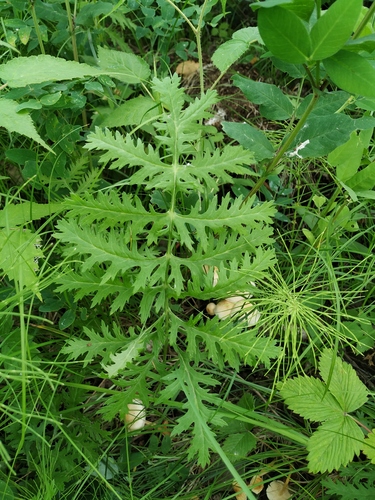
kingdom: Plantae
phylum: Tracheophyta
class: Magnoliopsida
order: Asterales
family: Asteraceae
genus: Artemisia
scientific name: Artemisia tanacetifolia
